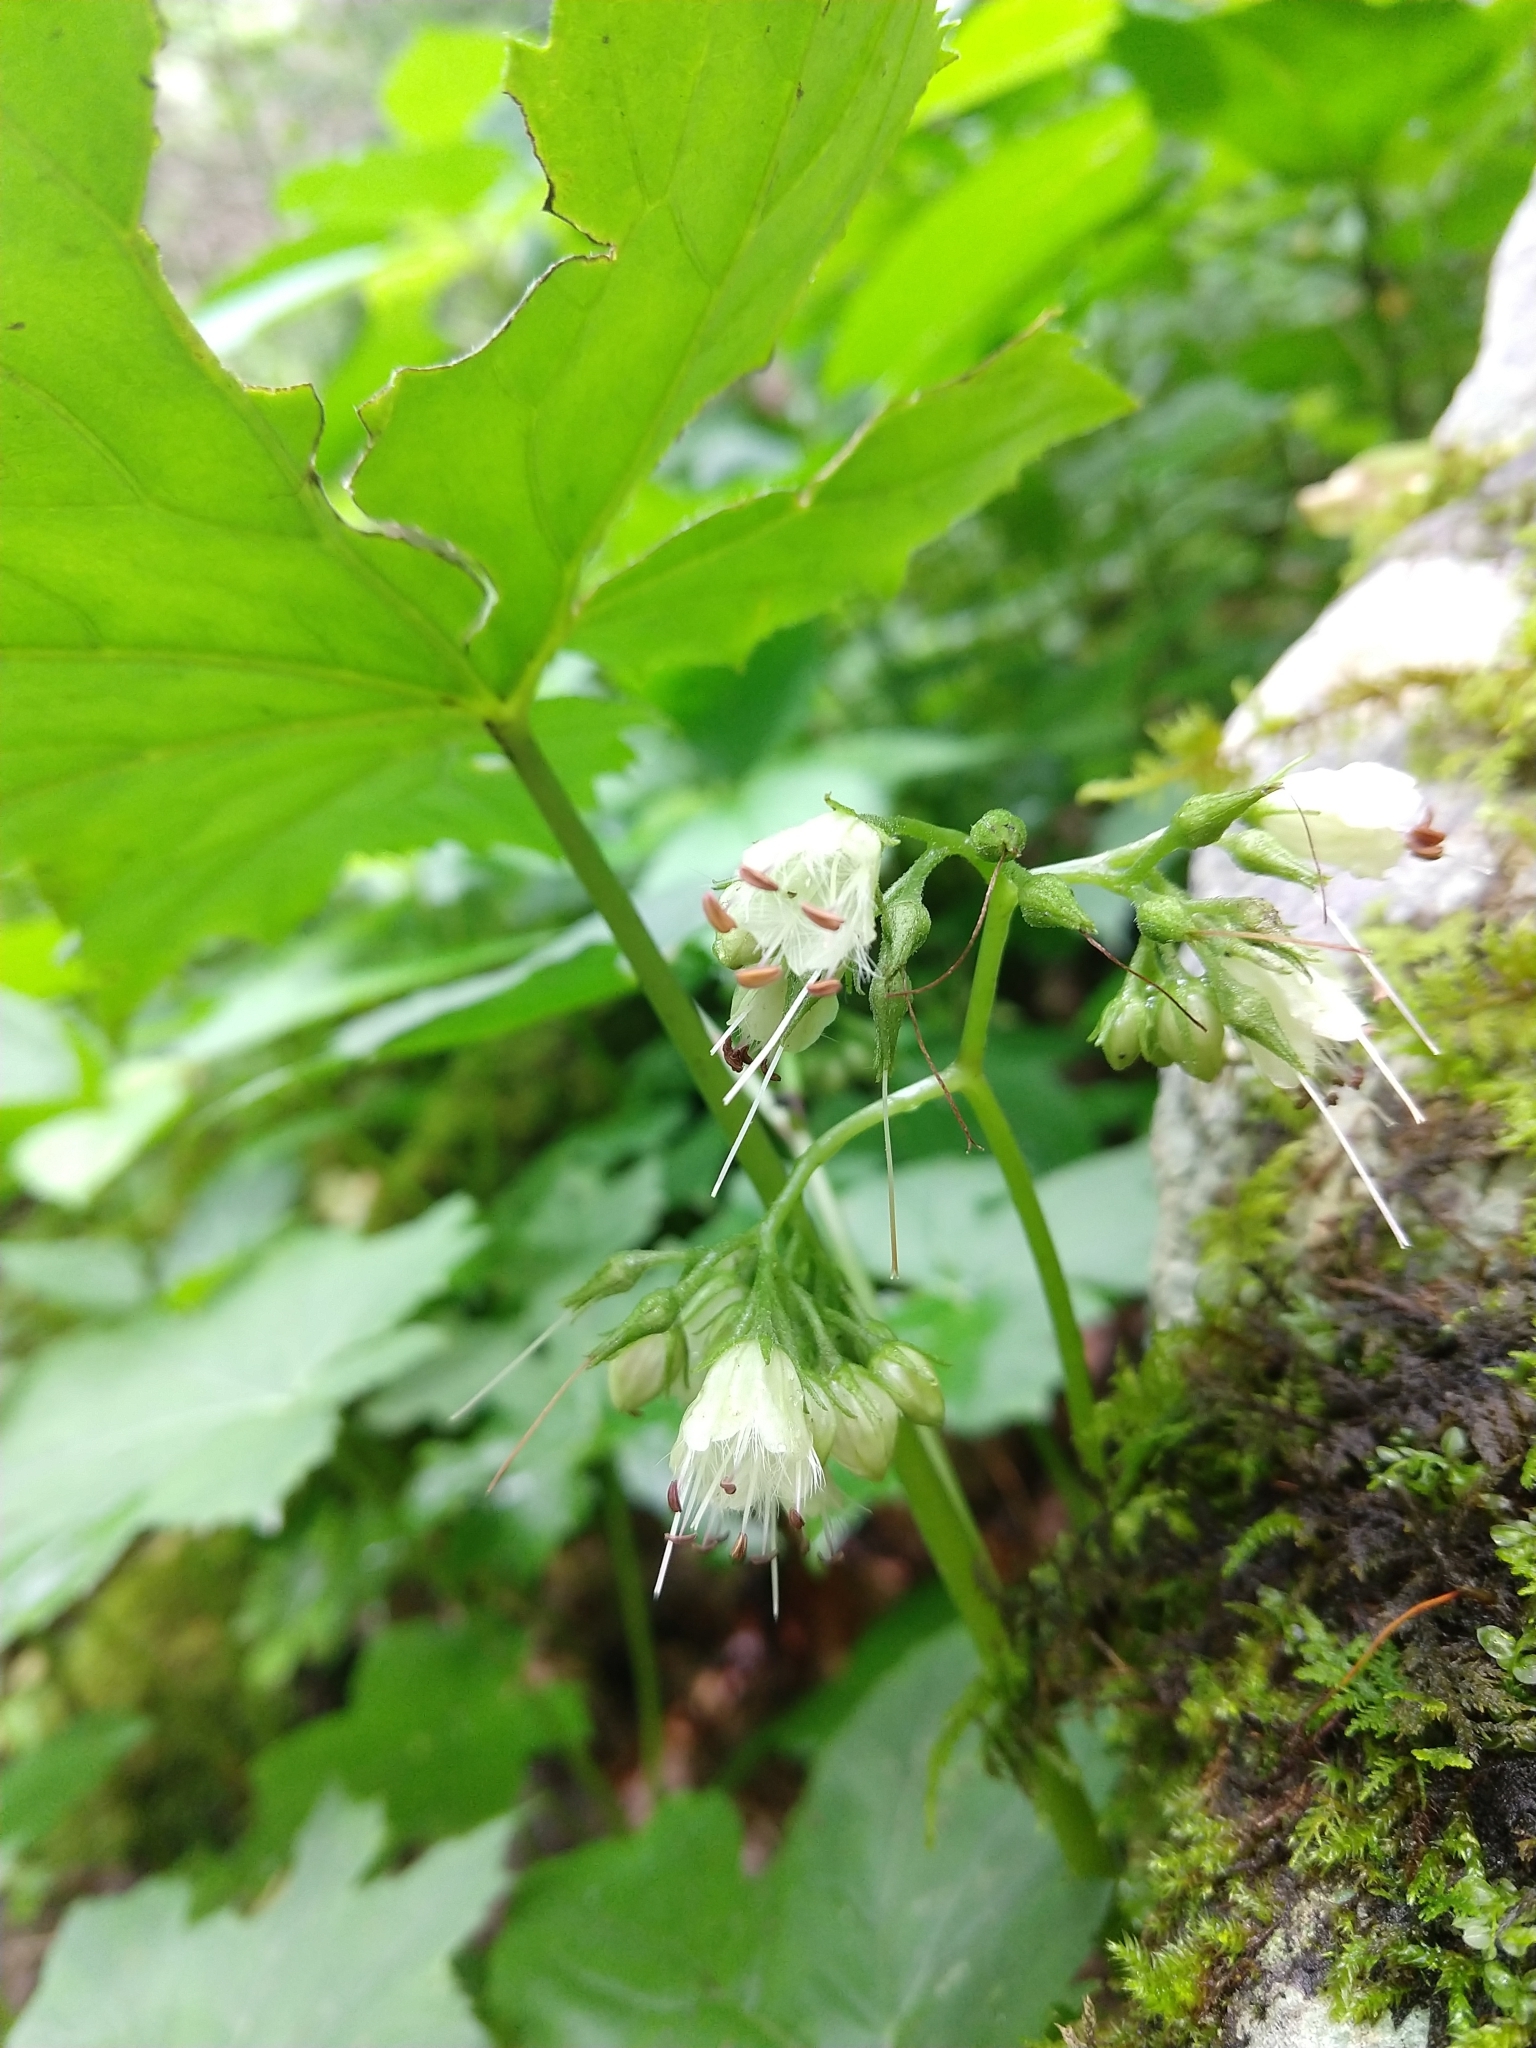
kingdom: Plantae
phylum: Tracheophyta
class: Magnoliopsida
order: Boraginales
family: Hydrophyllaceae
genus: Hydrophyllum
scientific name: Hydrophyllum canadense
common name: Canada waterleaf
